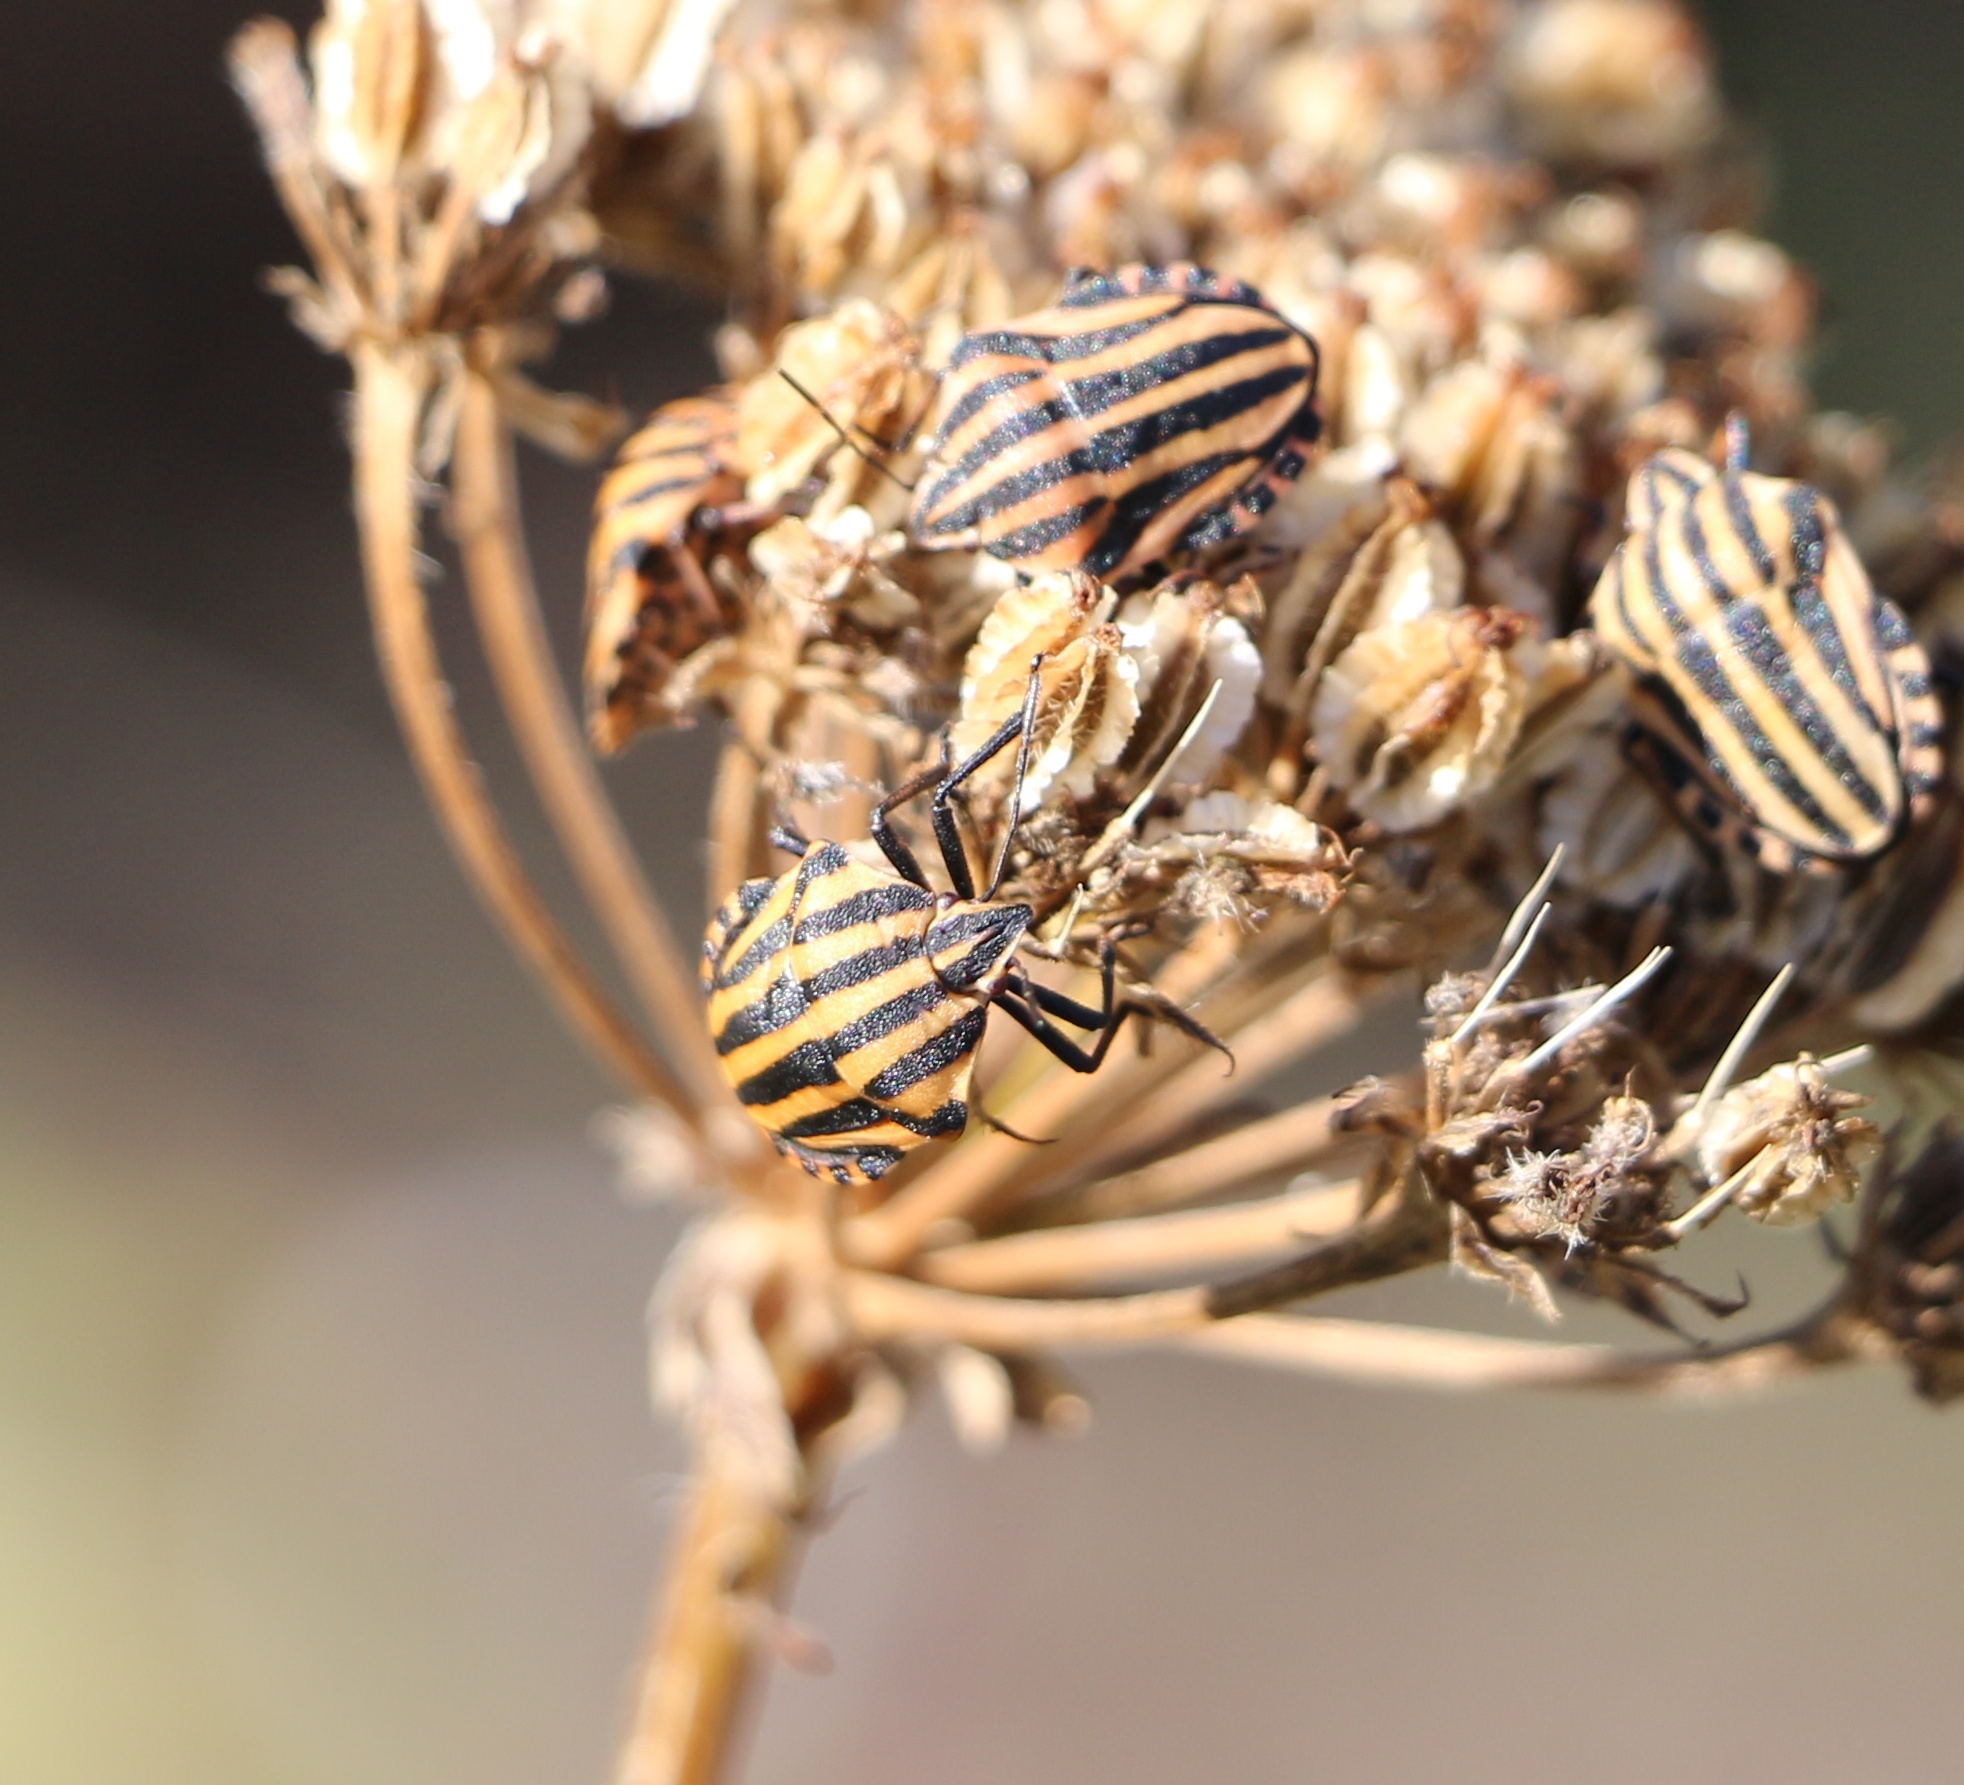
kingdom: Animalia
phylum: Arthropoda
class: Insecta
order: Hemiptera
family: Pentatomidae
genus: Graphosoma
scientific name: Graphosoma italicum
